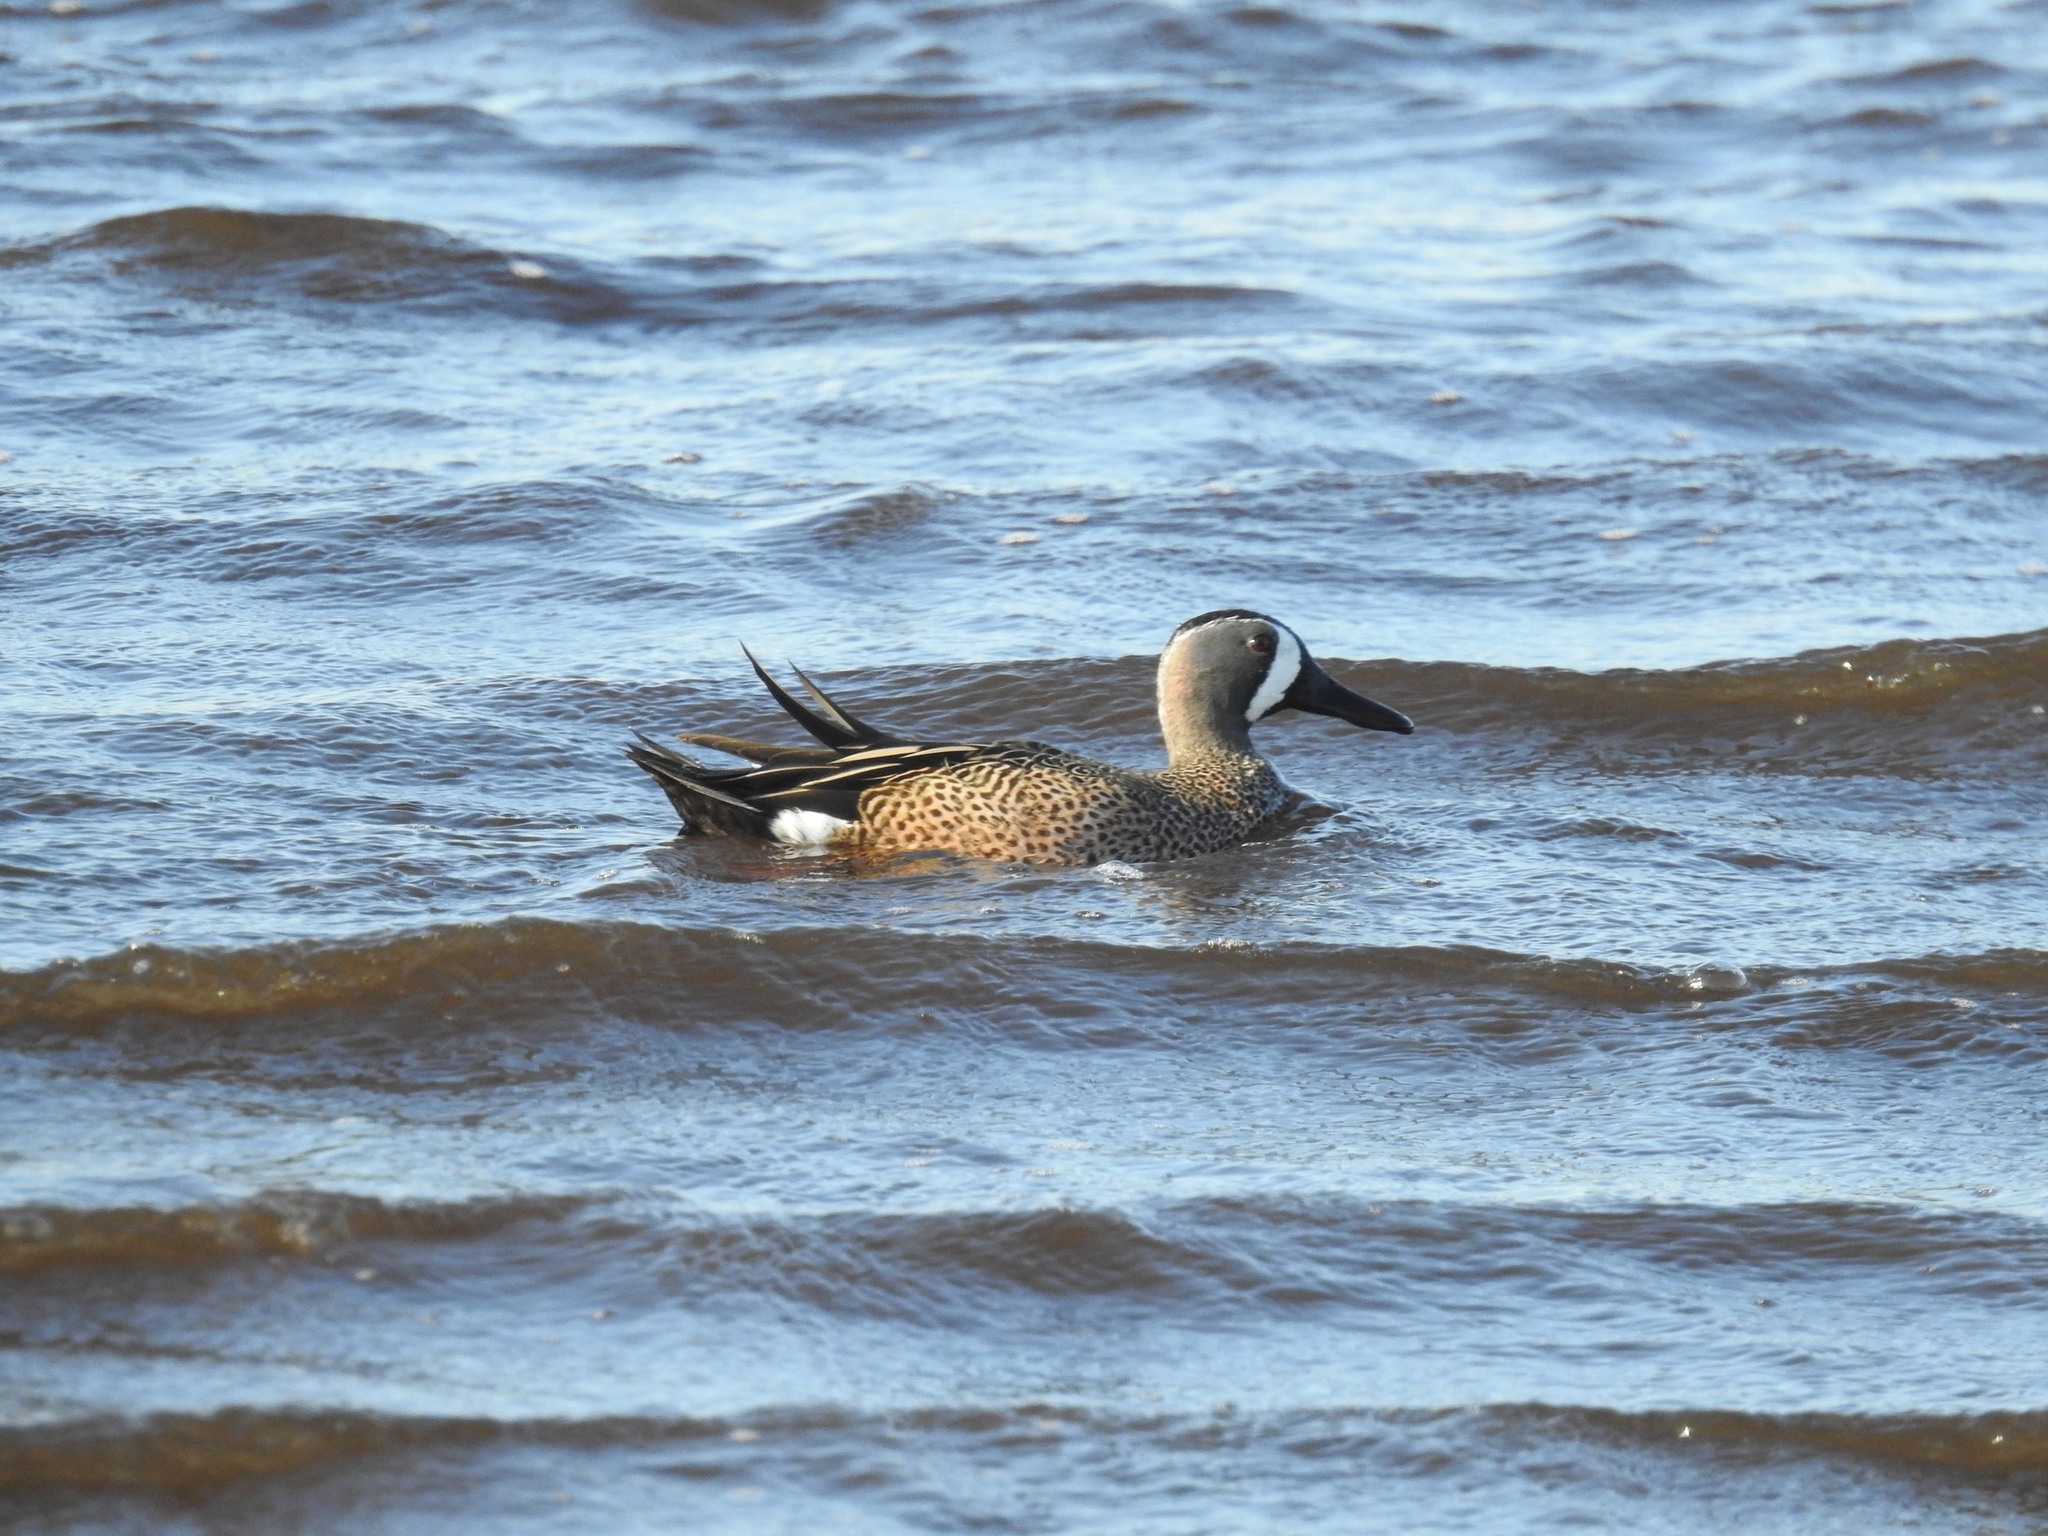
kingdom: Animalia
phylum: Chordata
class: Aves
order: Anseriformes
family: Anatidae
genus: Spatula
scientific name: Spatula discors
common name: Blue-winged teal
